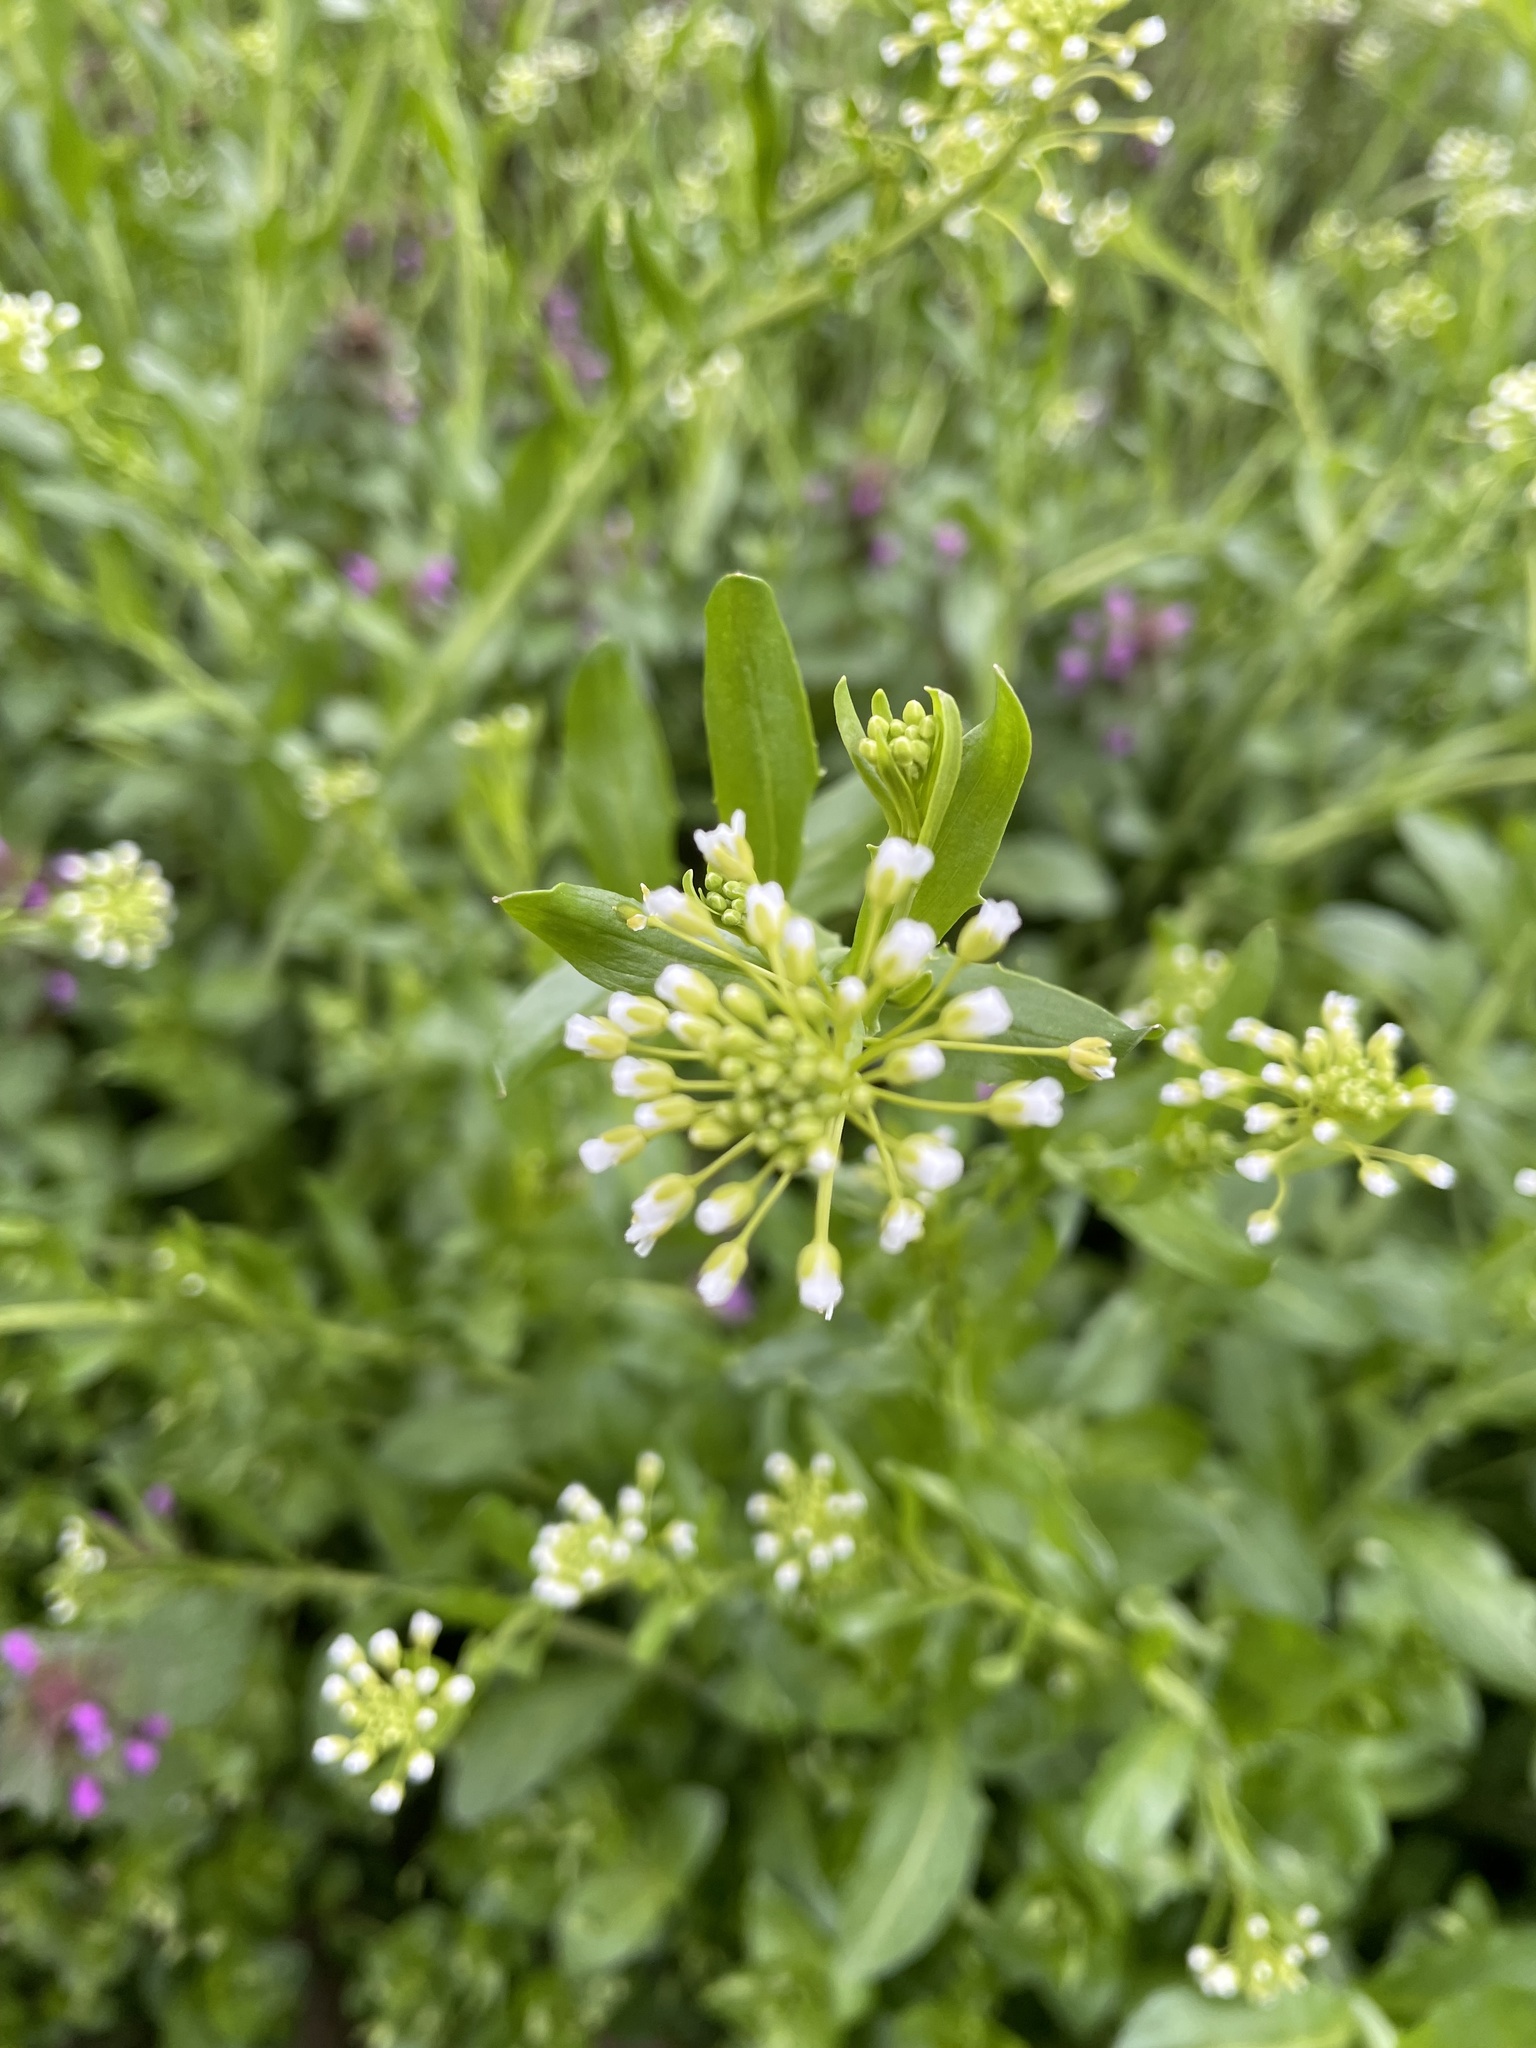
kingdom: Plantae
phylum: Tracheophyta
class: Magnoliopsida
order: Brassicales
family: Brassicaceae
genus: Mummenhoffia
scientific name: Mummenhoffia alliacea
